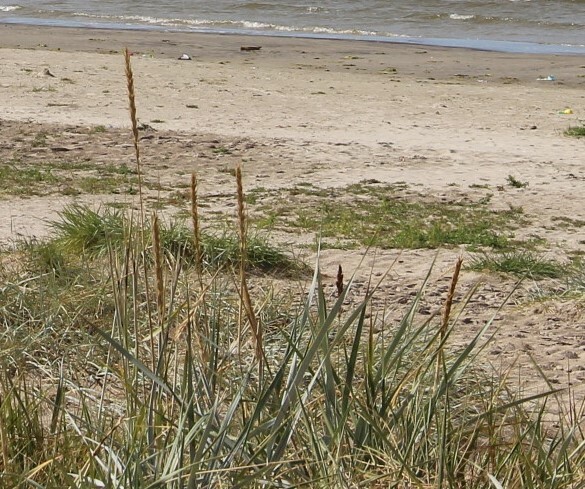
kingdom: Plantae
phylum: Tracheophyta
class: Liliopsida
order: Poales
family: Poaceae
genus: Leymus
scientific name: Leymus arenarius
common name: Lyme-grass
